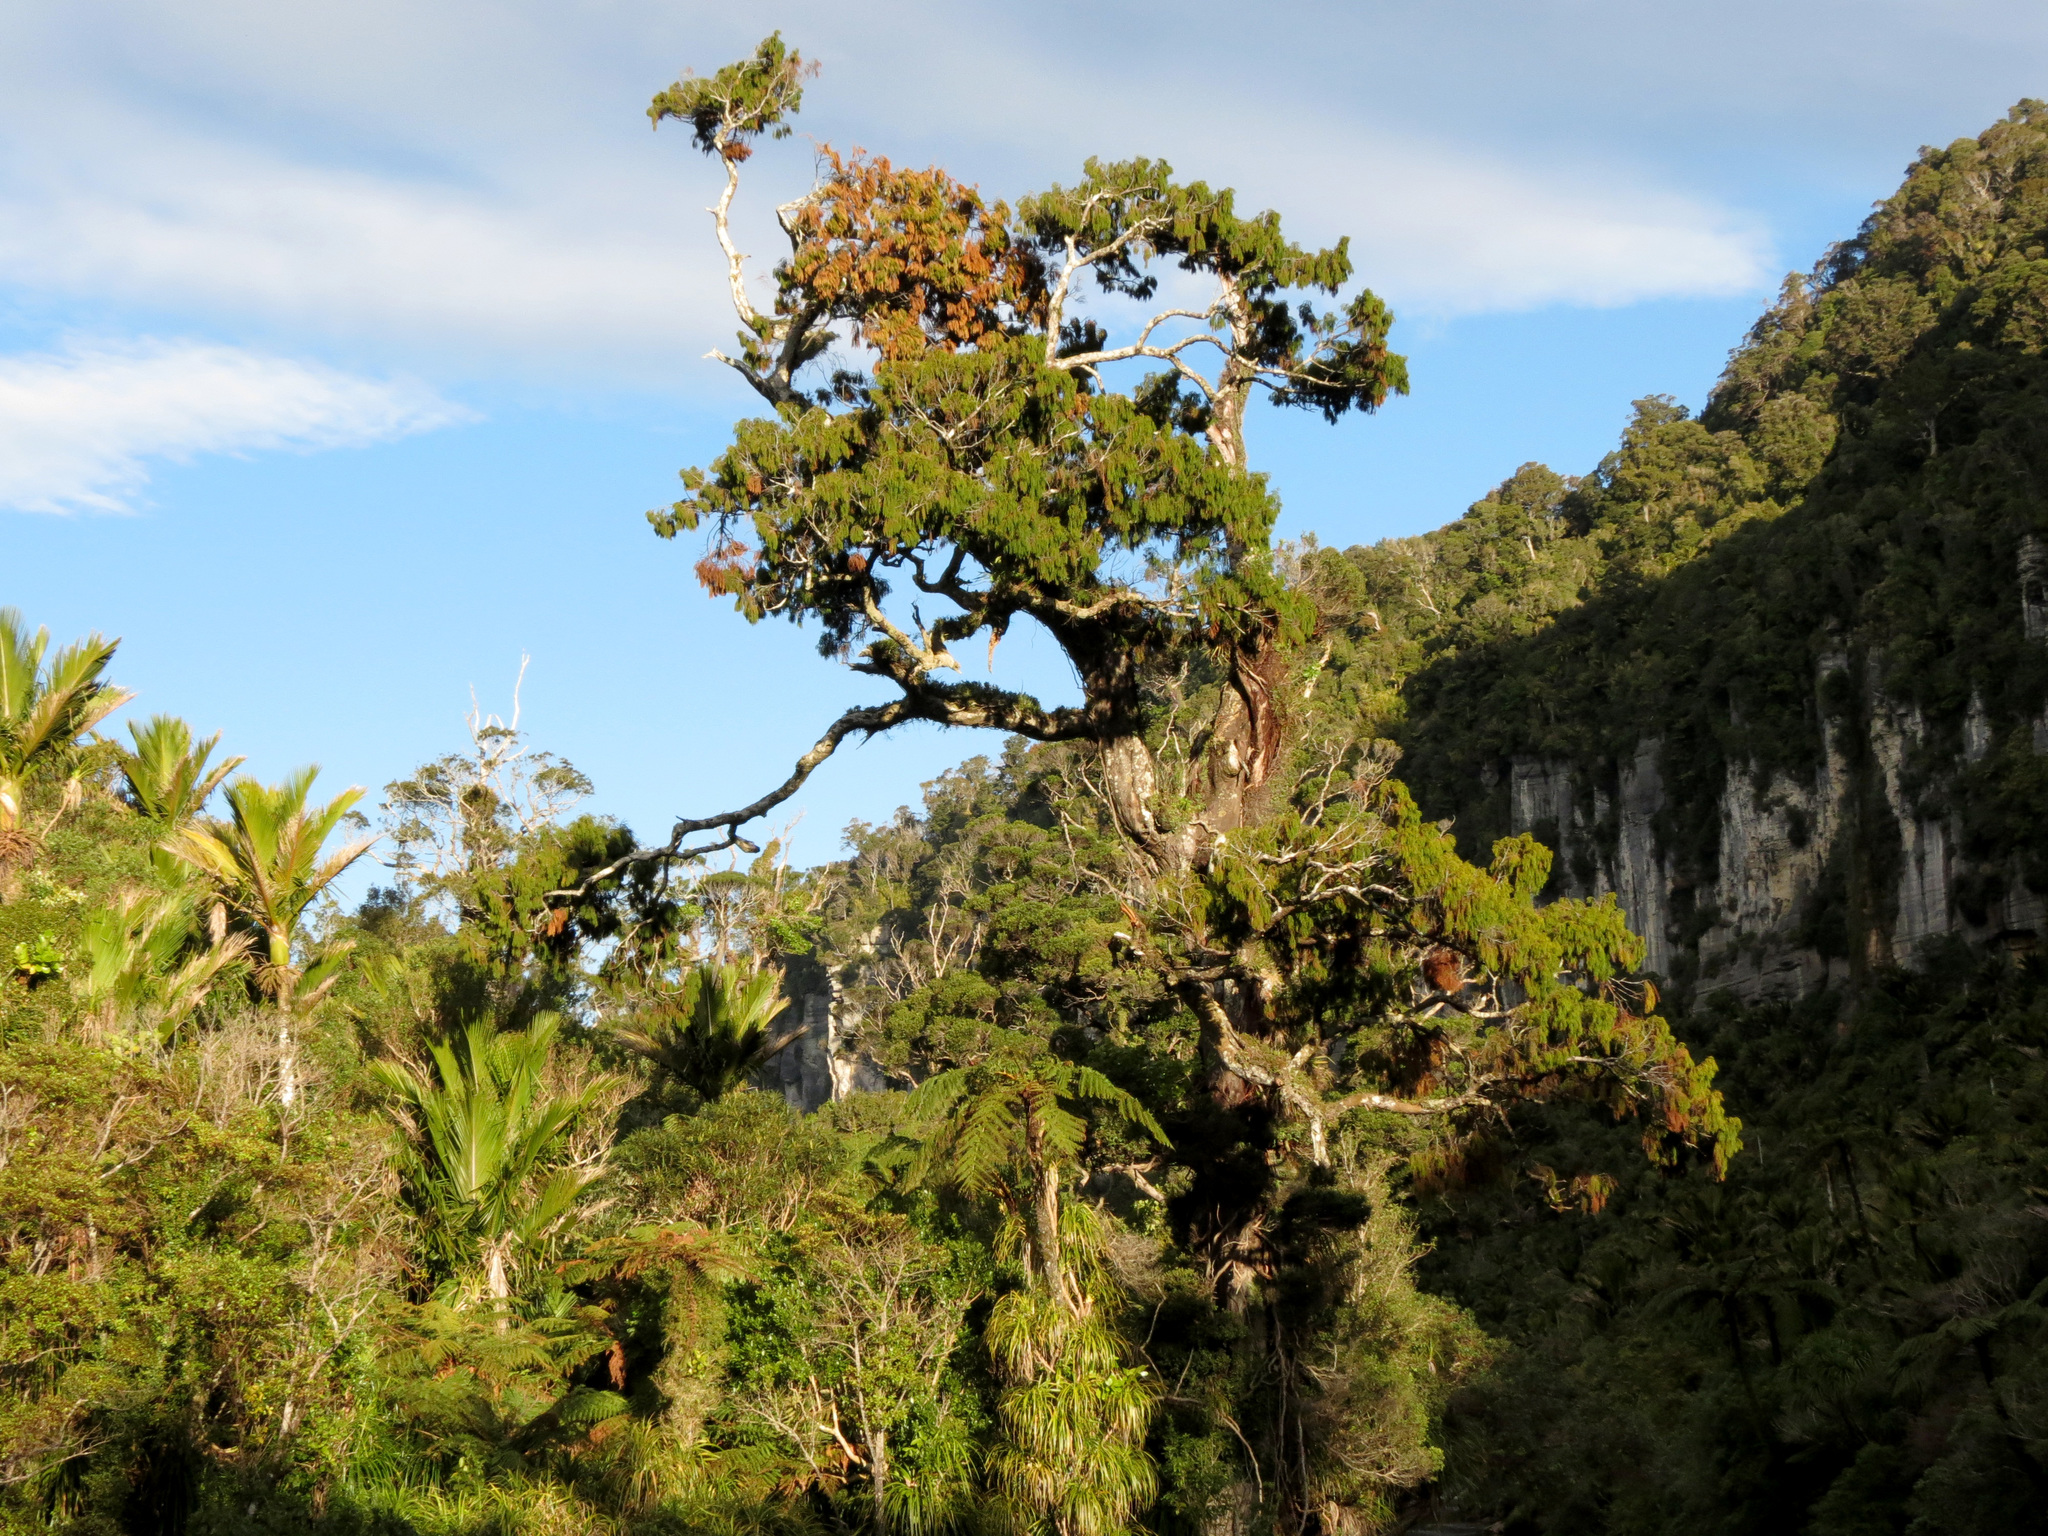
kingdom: Plantae
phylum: Tracheophyta
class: Pinopsida
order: Pinales
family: Podocarpaceae
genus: Dacrydium
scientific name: Dacrydium cupressinum
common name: Red pine
